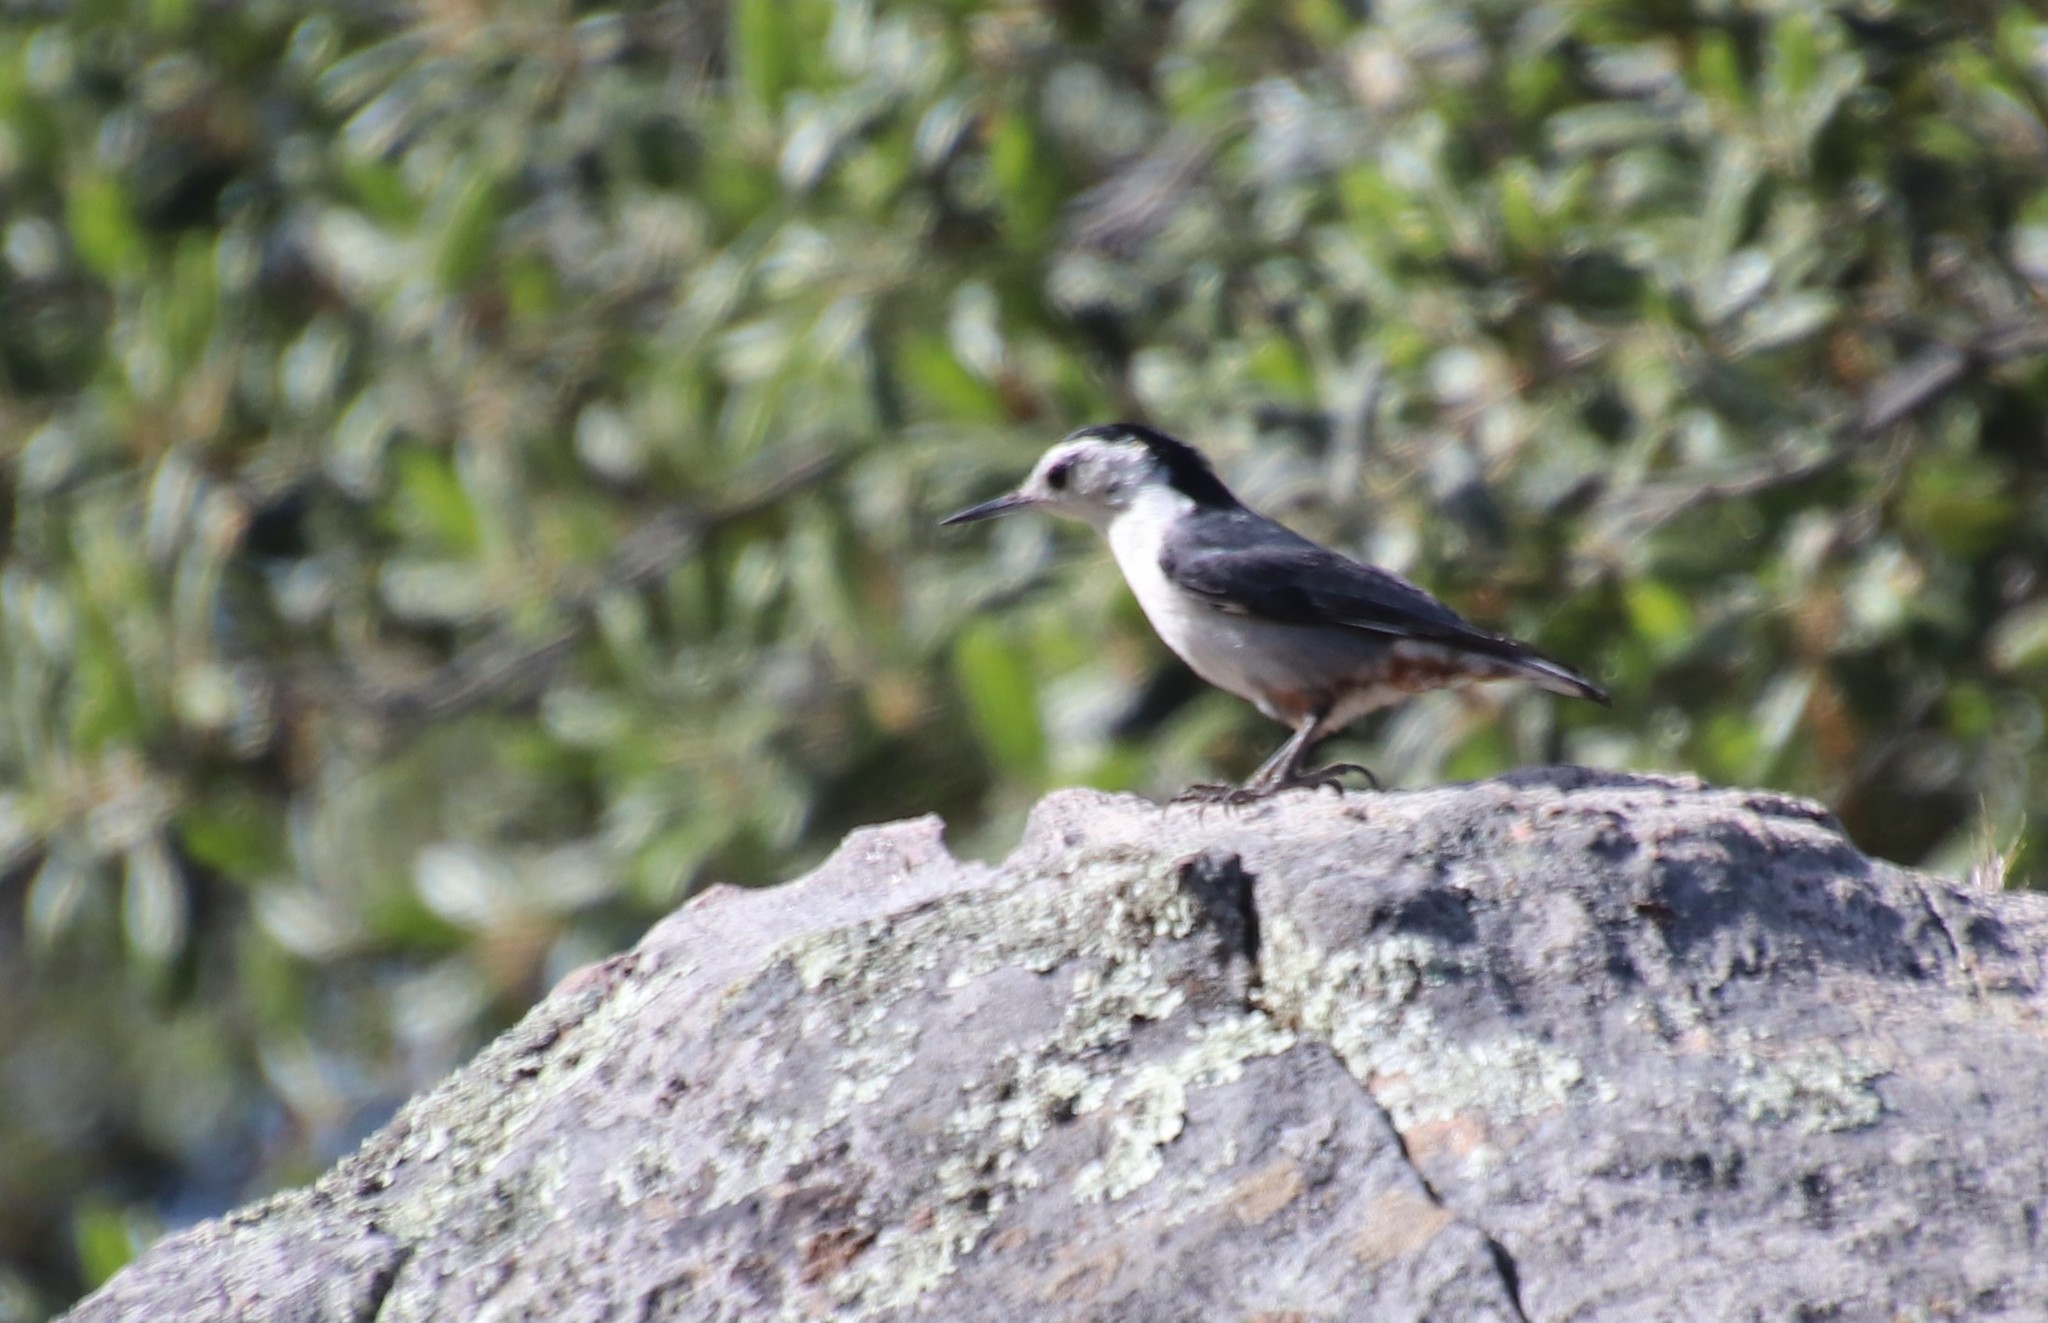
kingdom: Animalia
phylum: Chordata
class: Aves
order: Passeriformes
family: Sittidae
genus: Sitta
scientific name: Sitta carolinensis
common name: White-breasted nuthatch
